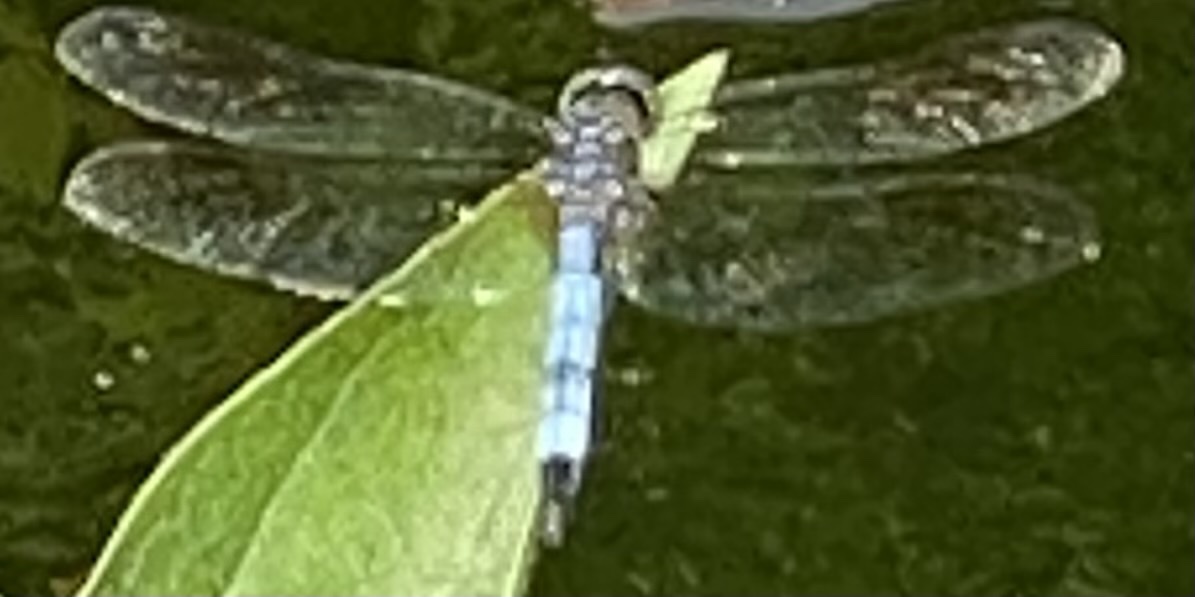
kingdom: Animalia
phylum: Arthropoda
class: Insecta
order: Odonata
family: Libellulidae
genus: Pachydiplax
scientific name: Pachydiplax longipennis
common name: Blue dasher
